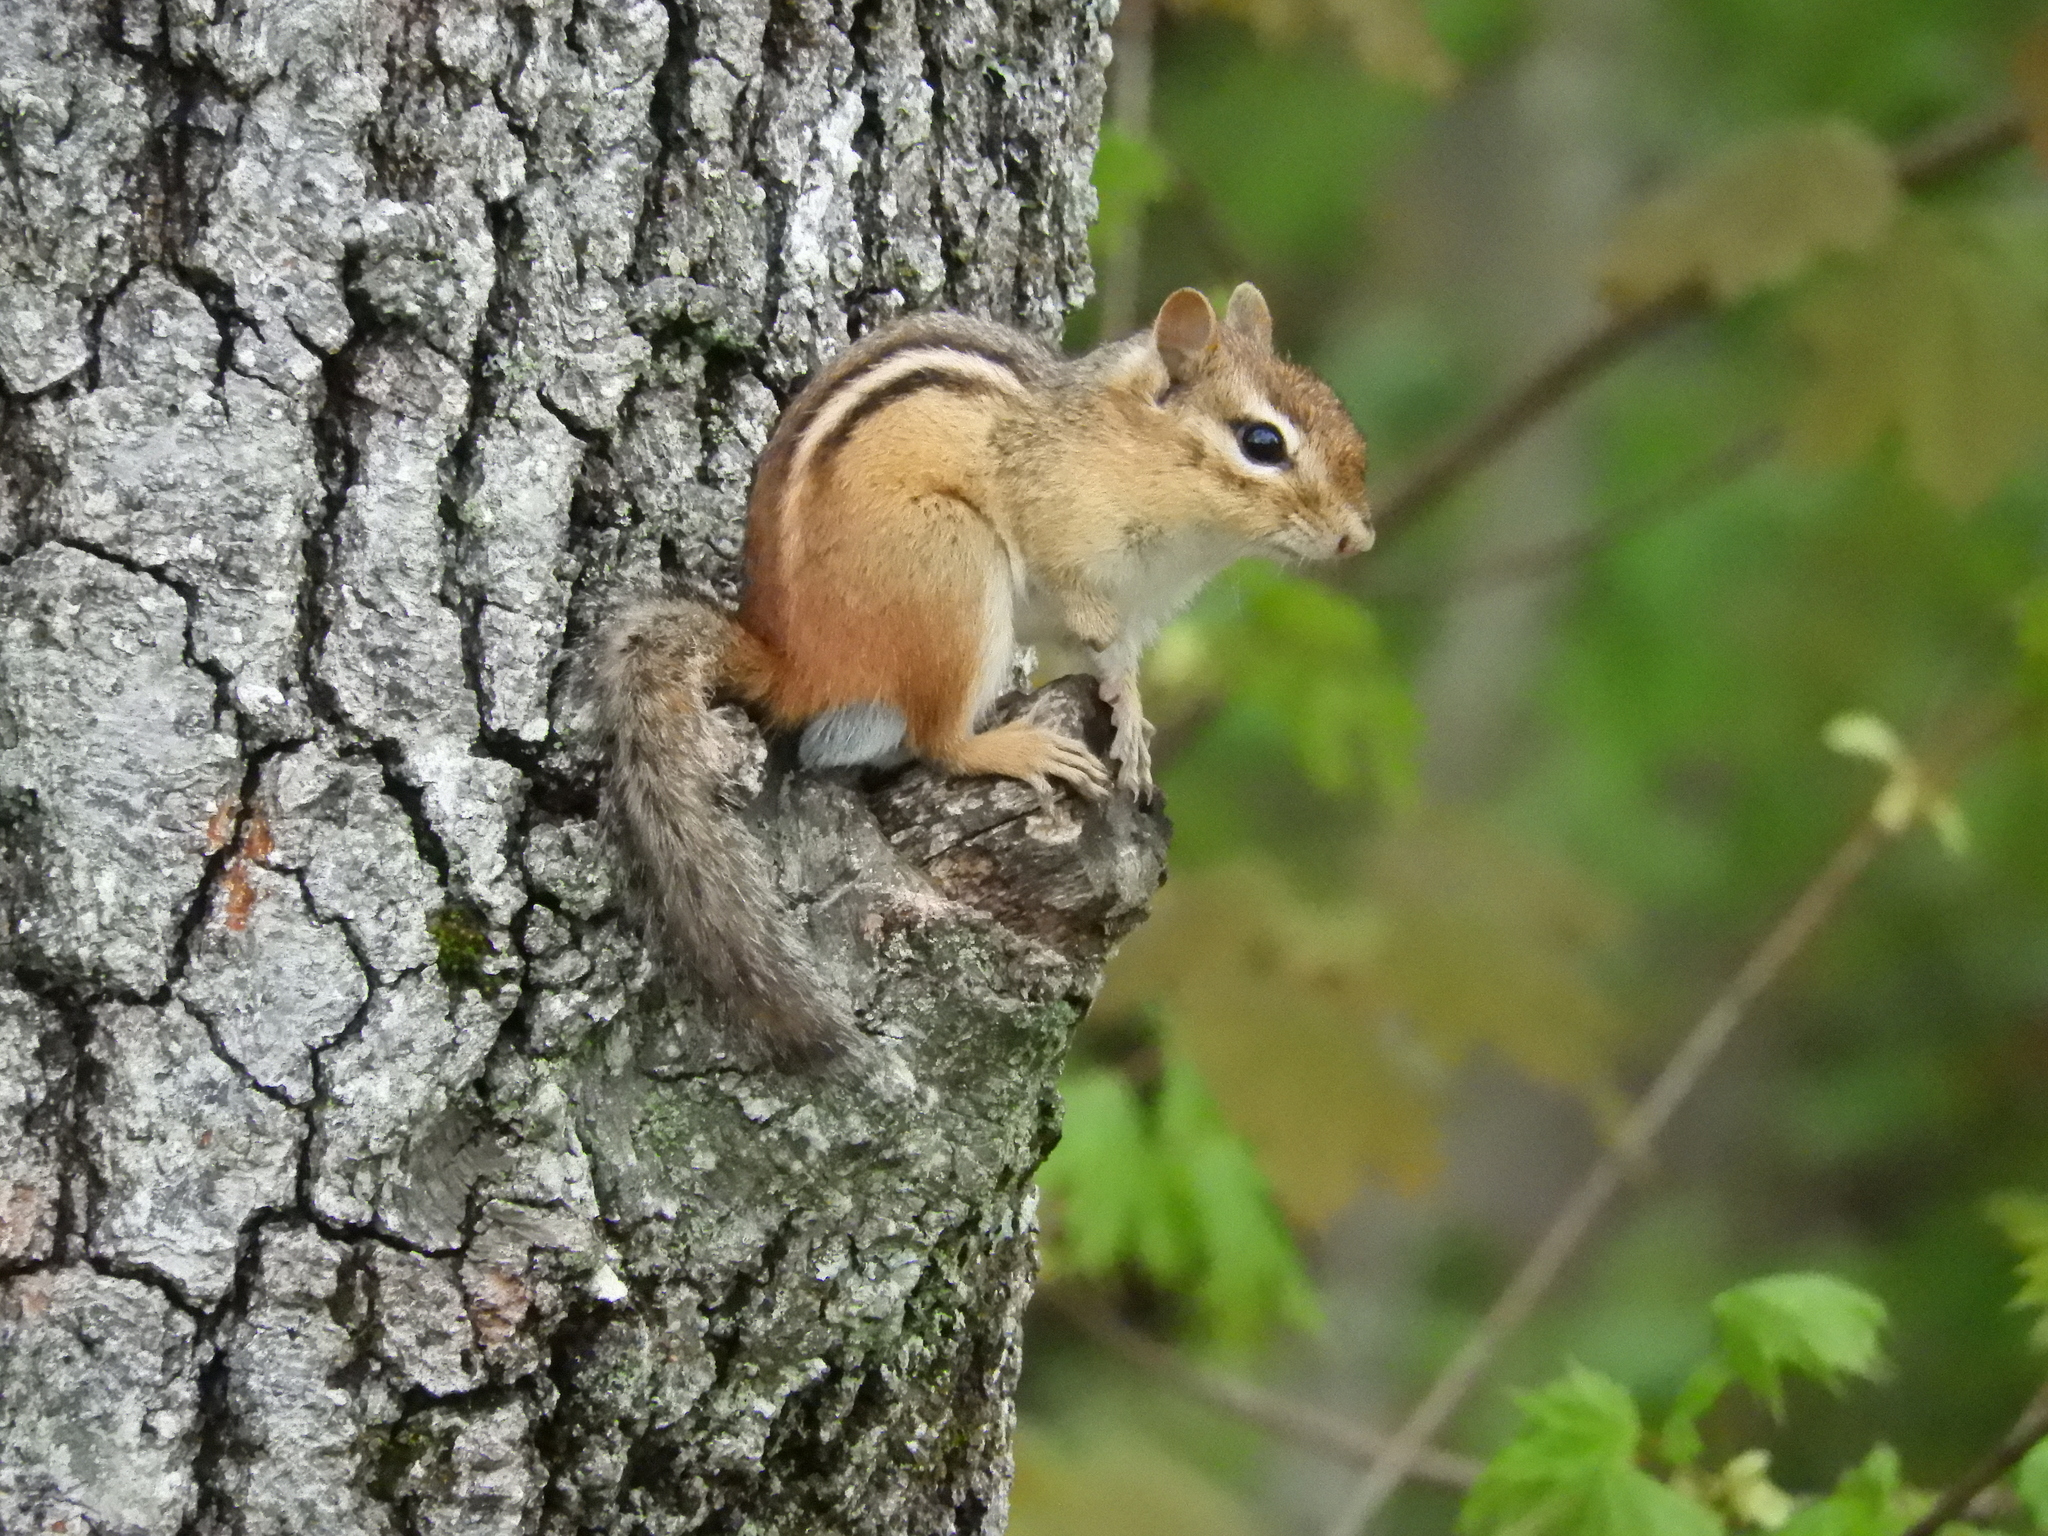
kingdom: Animalia
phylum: Chordata
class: Mammalia
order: Rodentia
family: Sciuridae
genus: Tamias
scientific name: Tamias striatus
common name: Eastern chipmunk
